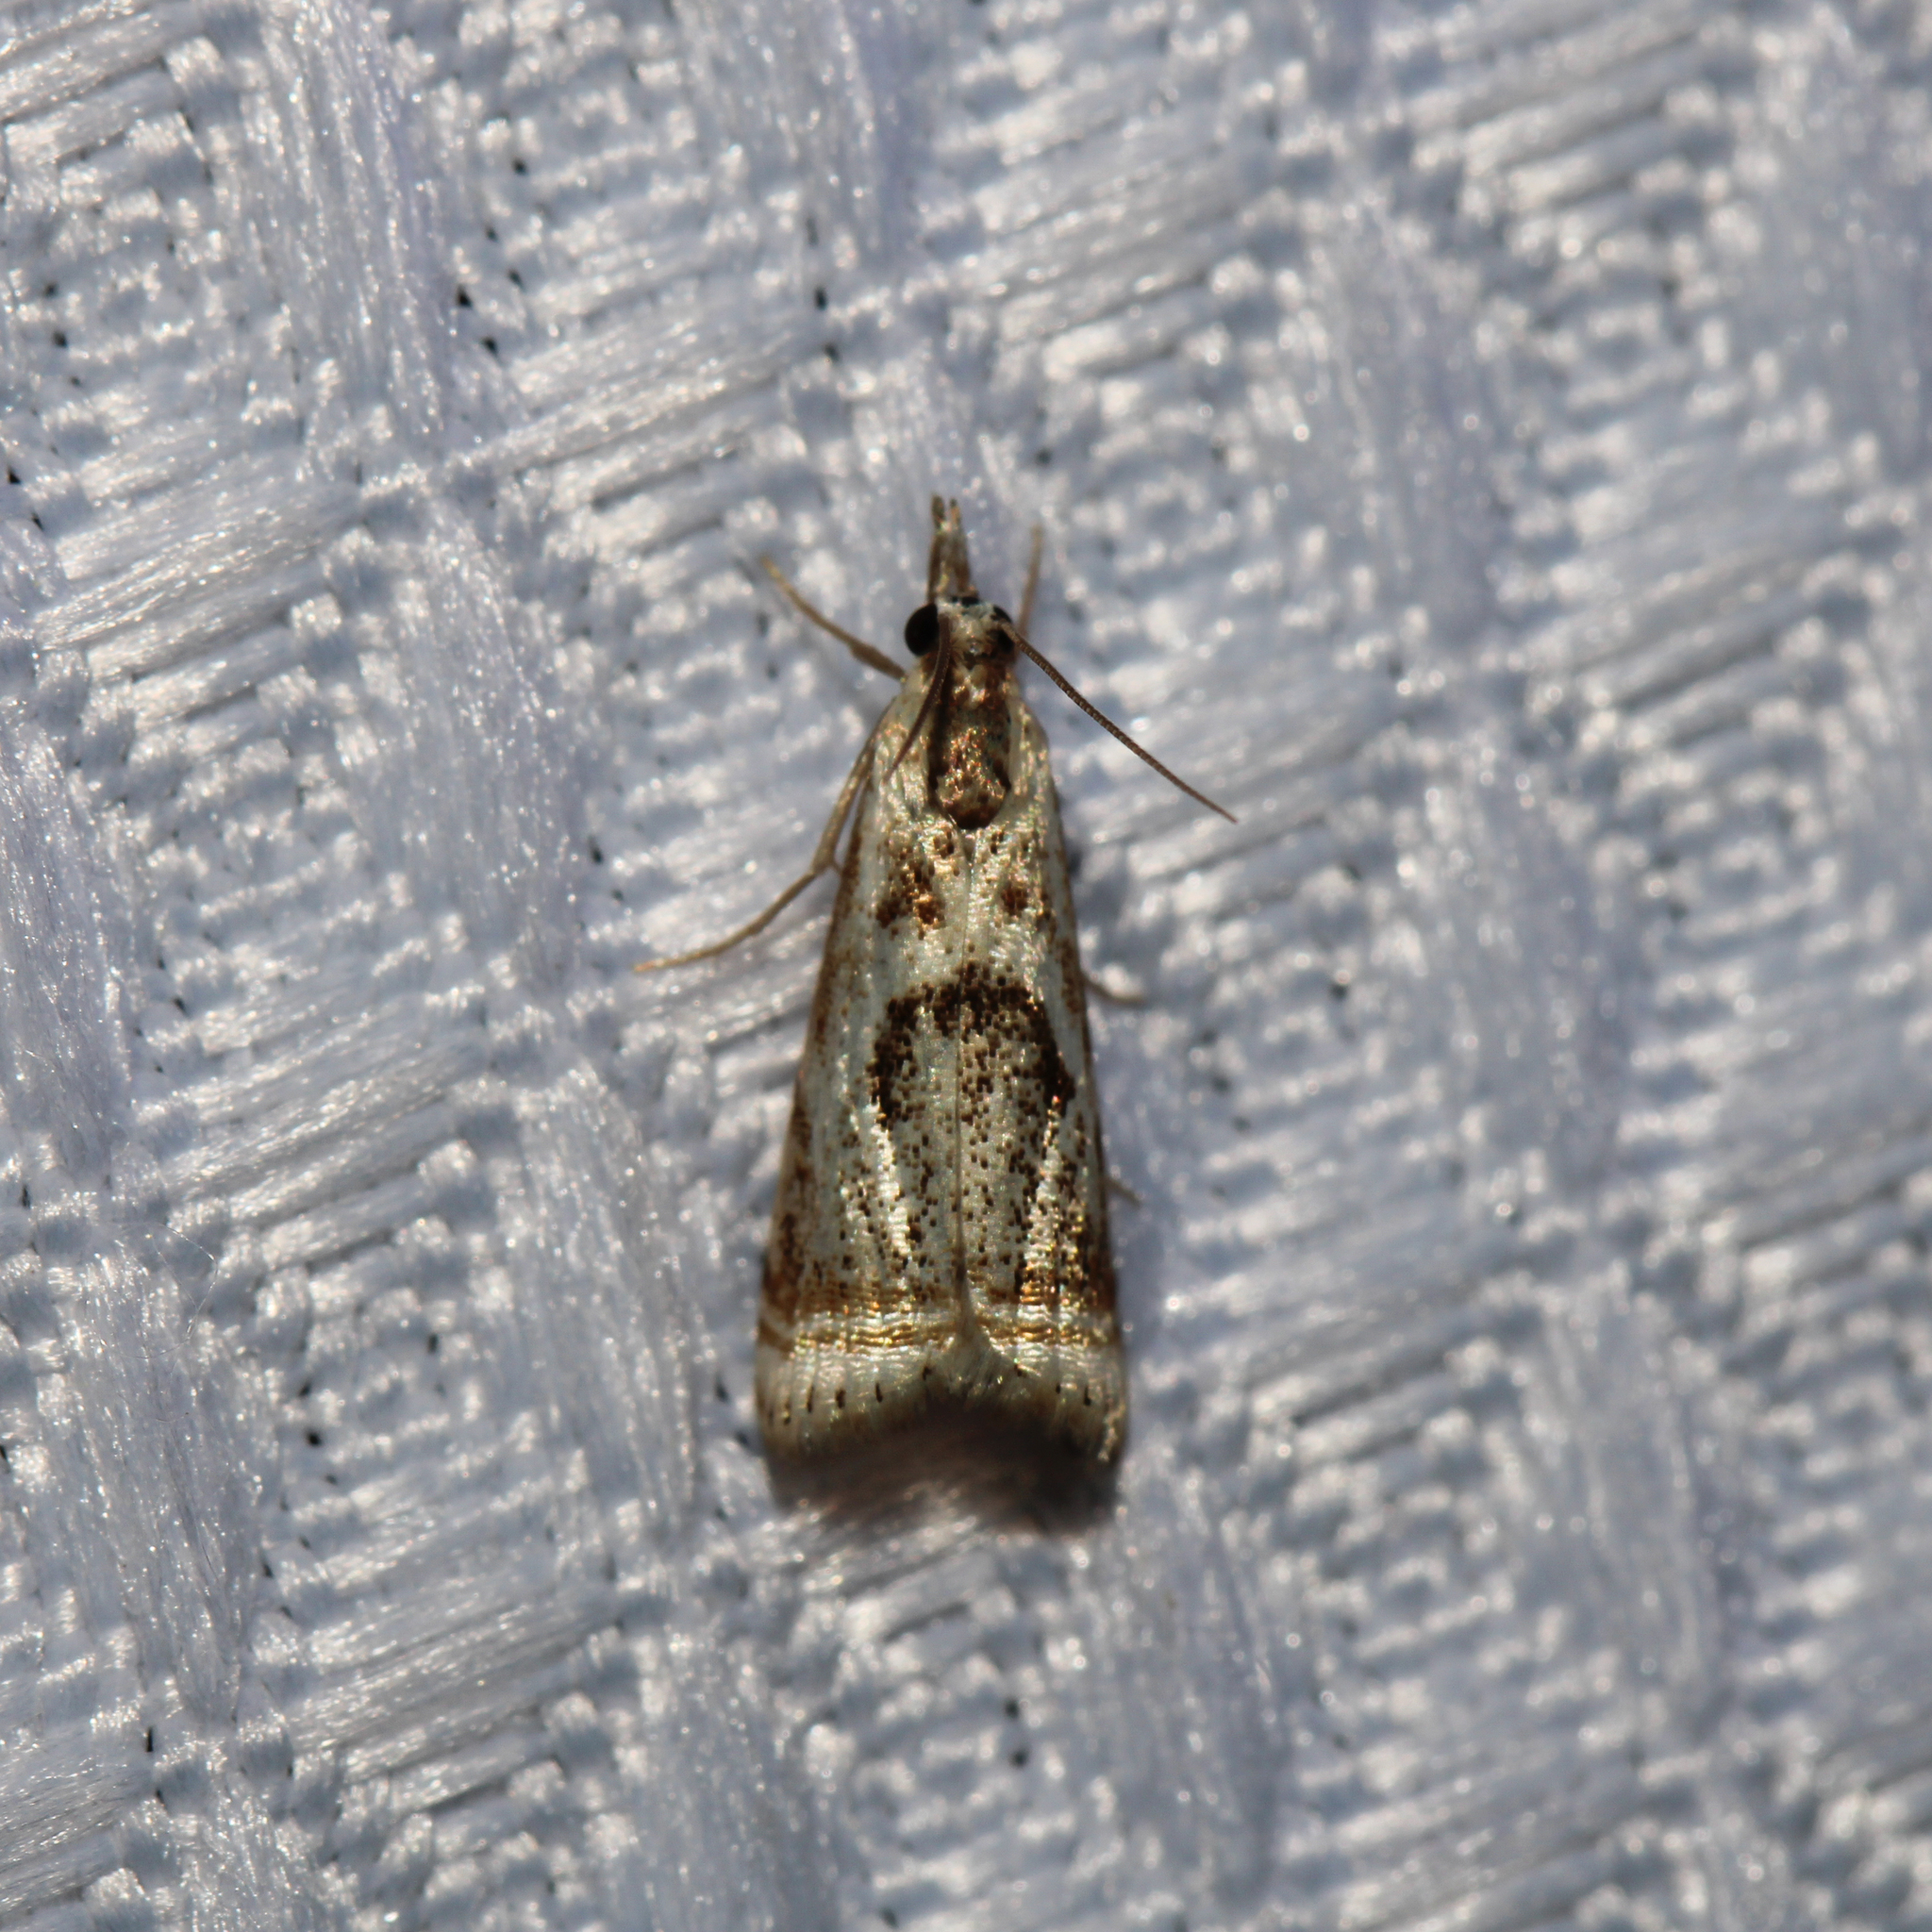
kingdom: Animalia
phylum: Arthropoda
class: Insecta
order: Lepidoptera
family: Crambidae
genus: Microcrambus
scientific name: Microcrambus elegans
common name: Elegant grass-veneer
